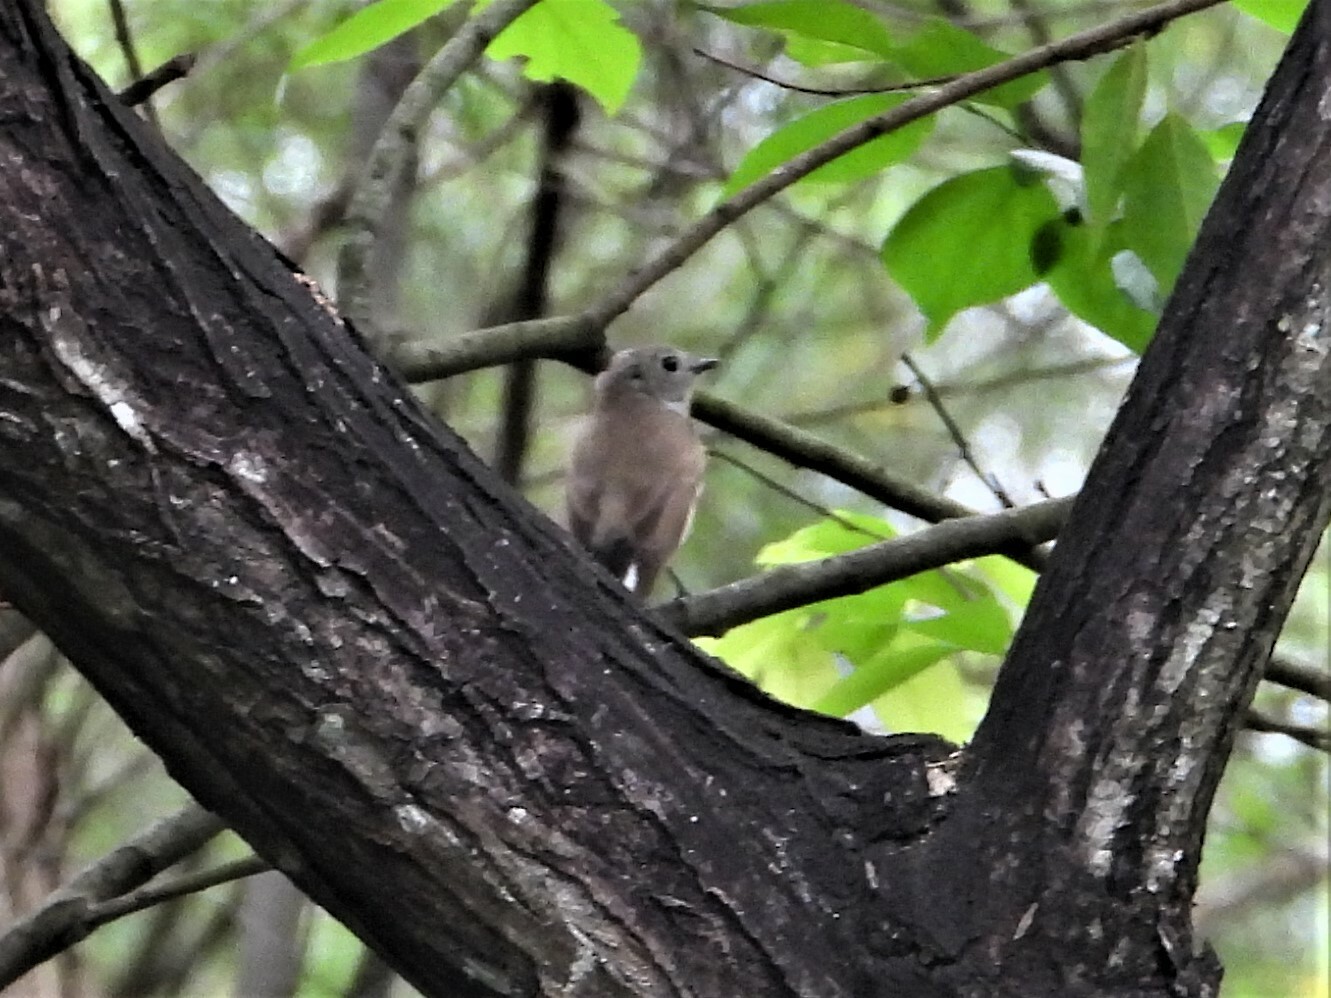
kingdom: Animalia
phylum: Chordata
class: Aves
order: Passeriformes
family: Muscicapidae
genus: Ficedula
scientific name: Ficedula albicilla
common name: Taiga flycatcher
